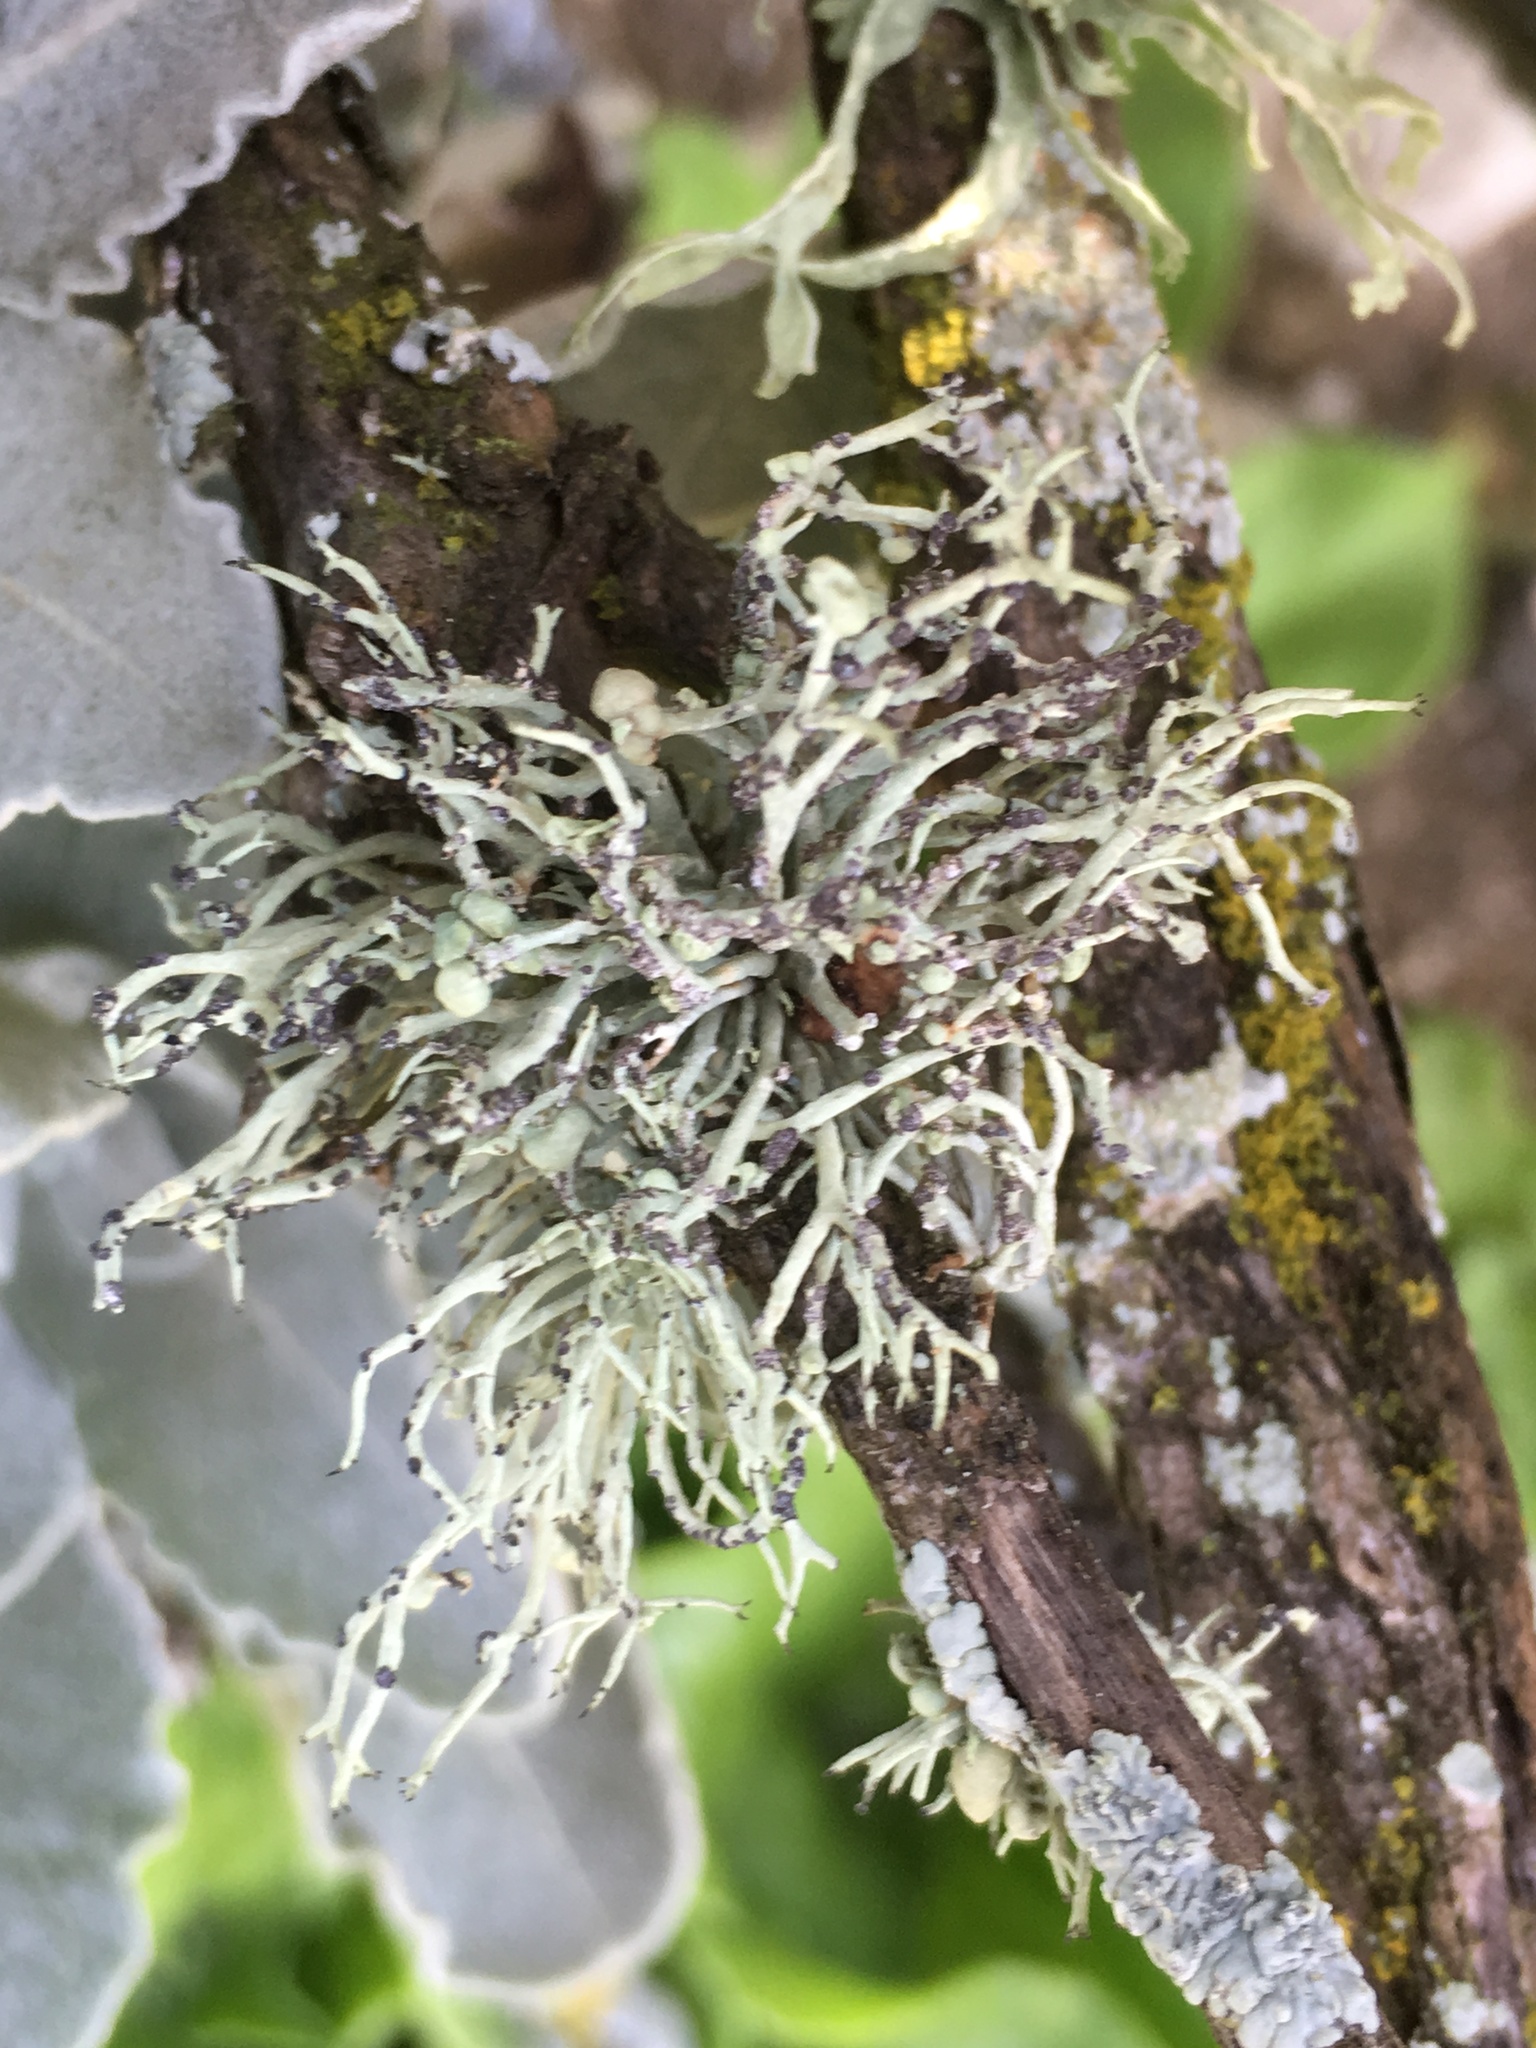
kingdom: Fungi
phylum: Ascomycota
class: Lecanoromycetes
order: Lecanorales
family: Ramalinaceae
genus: Niebla
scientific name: Niebla cephalota
